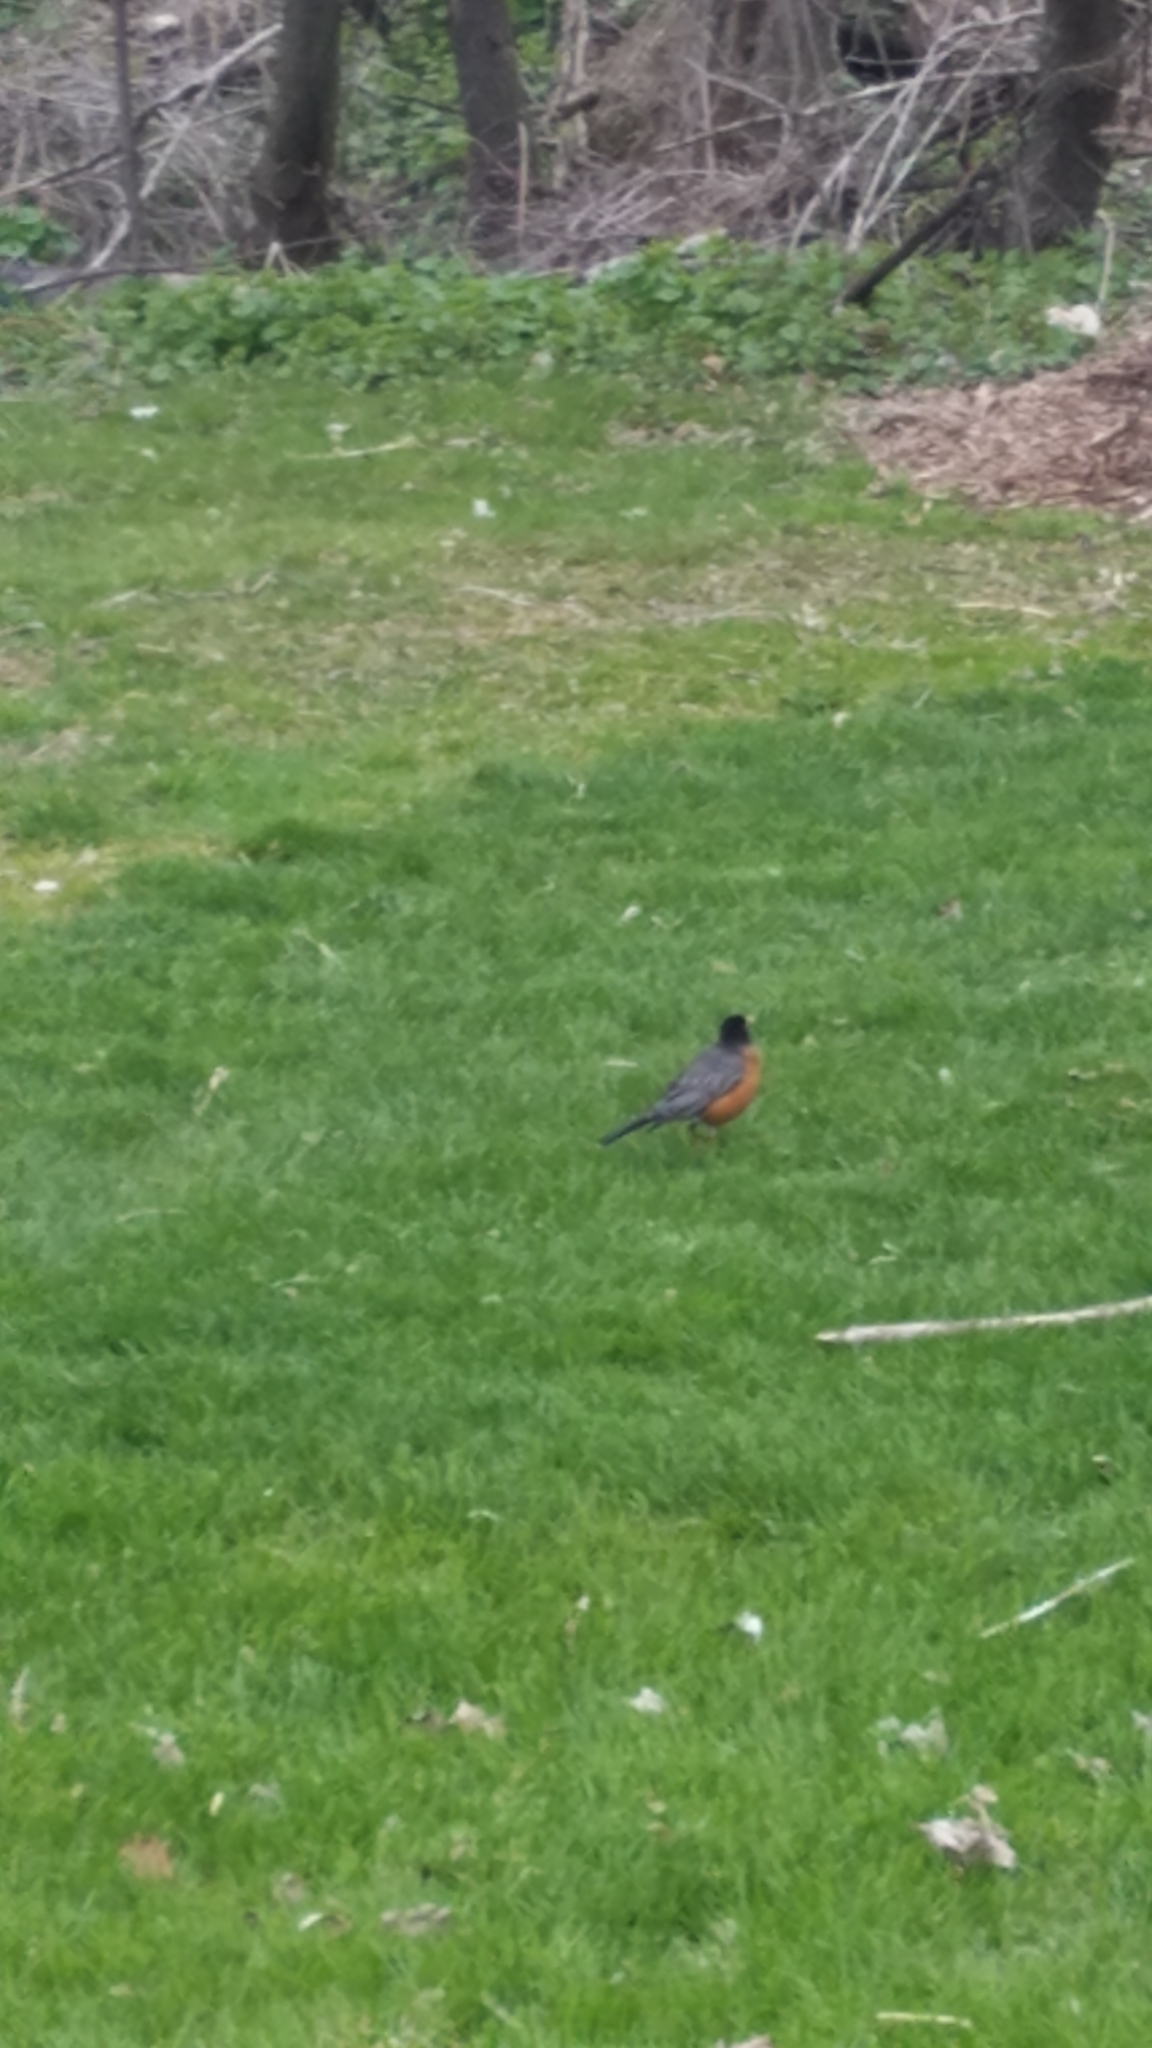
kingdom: Animalia
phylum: Chordata
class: Aves
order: Passeriformes
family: Turdidae
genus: Turdus
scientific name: Turdus migratorius
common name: American robin
